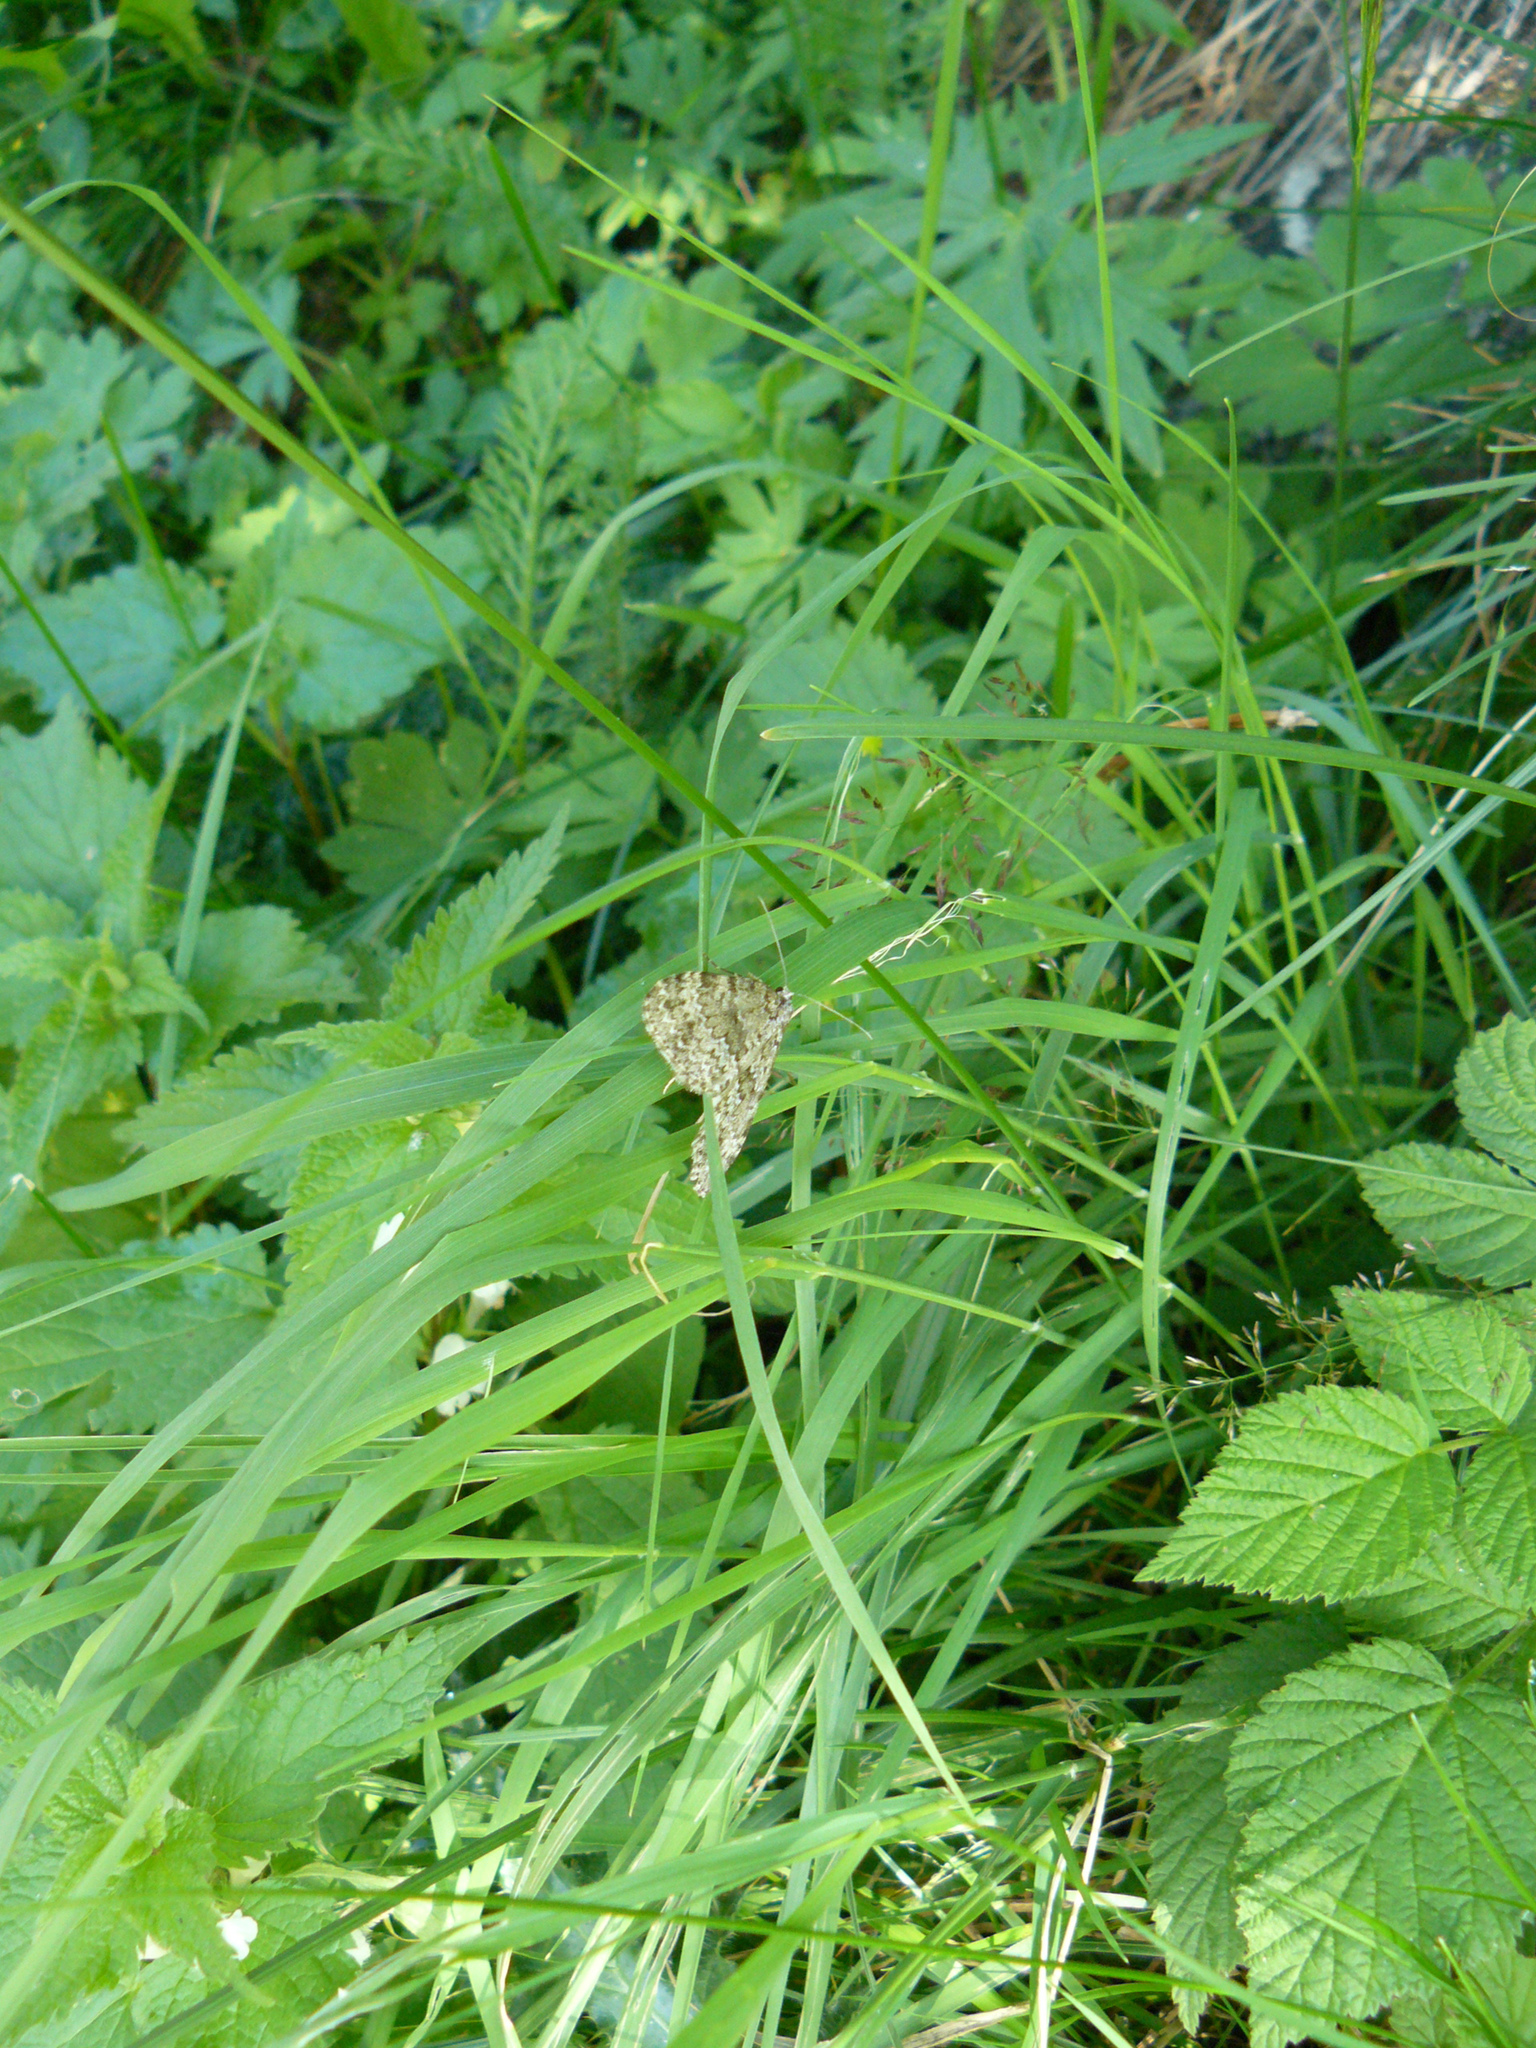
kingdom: Animalia
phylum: Arthropoda
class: Insecta
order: Lepidoptera
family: Geometridae
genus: Entephria
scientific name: Entephria caesiata
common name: Grey mountain moth
